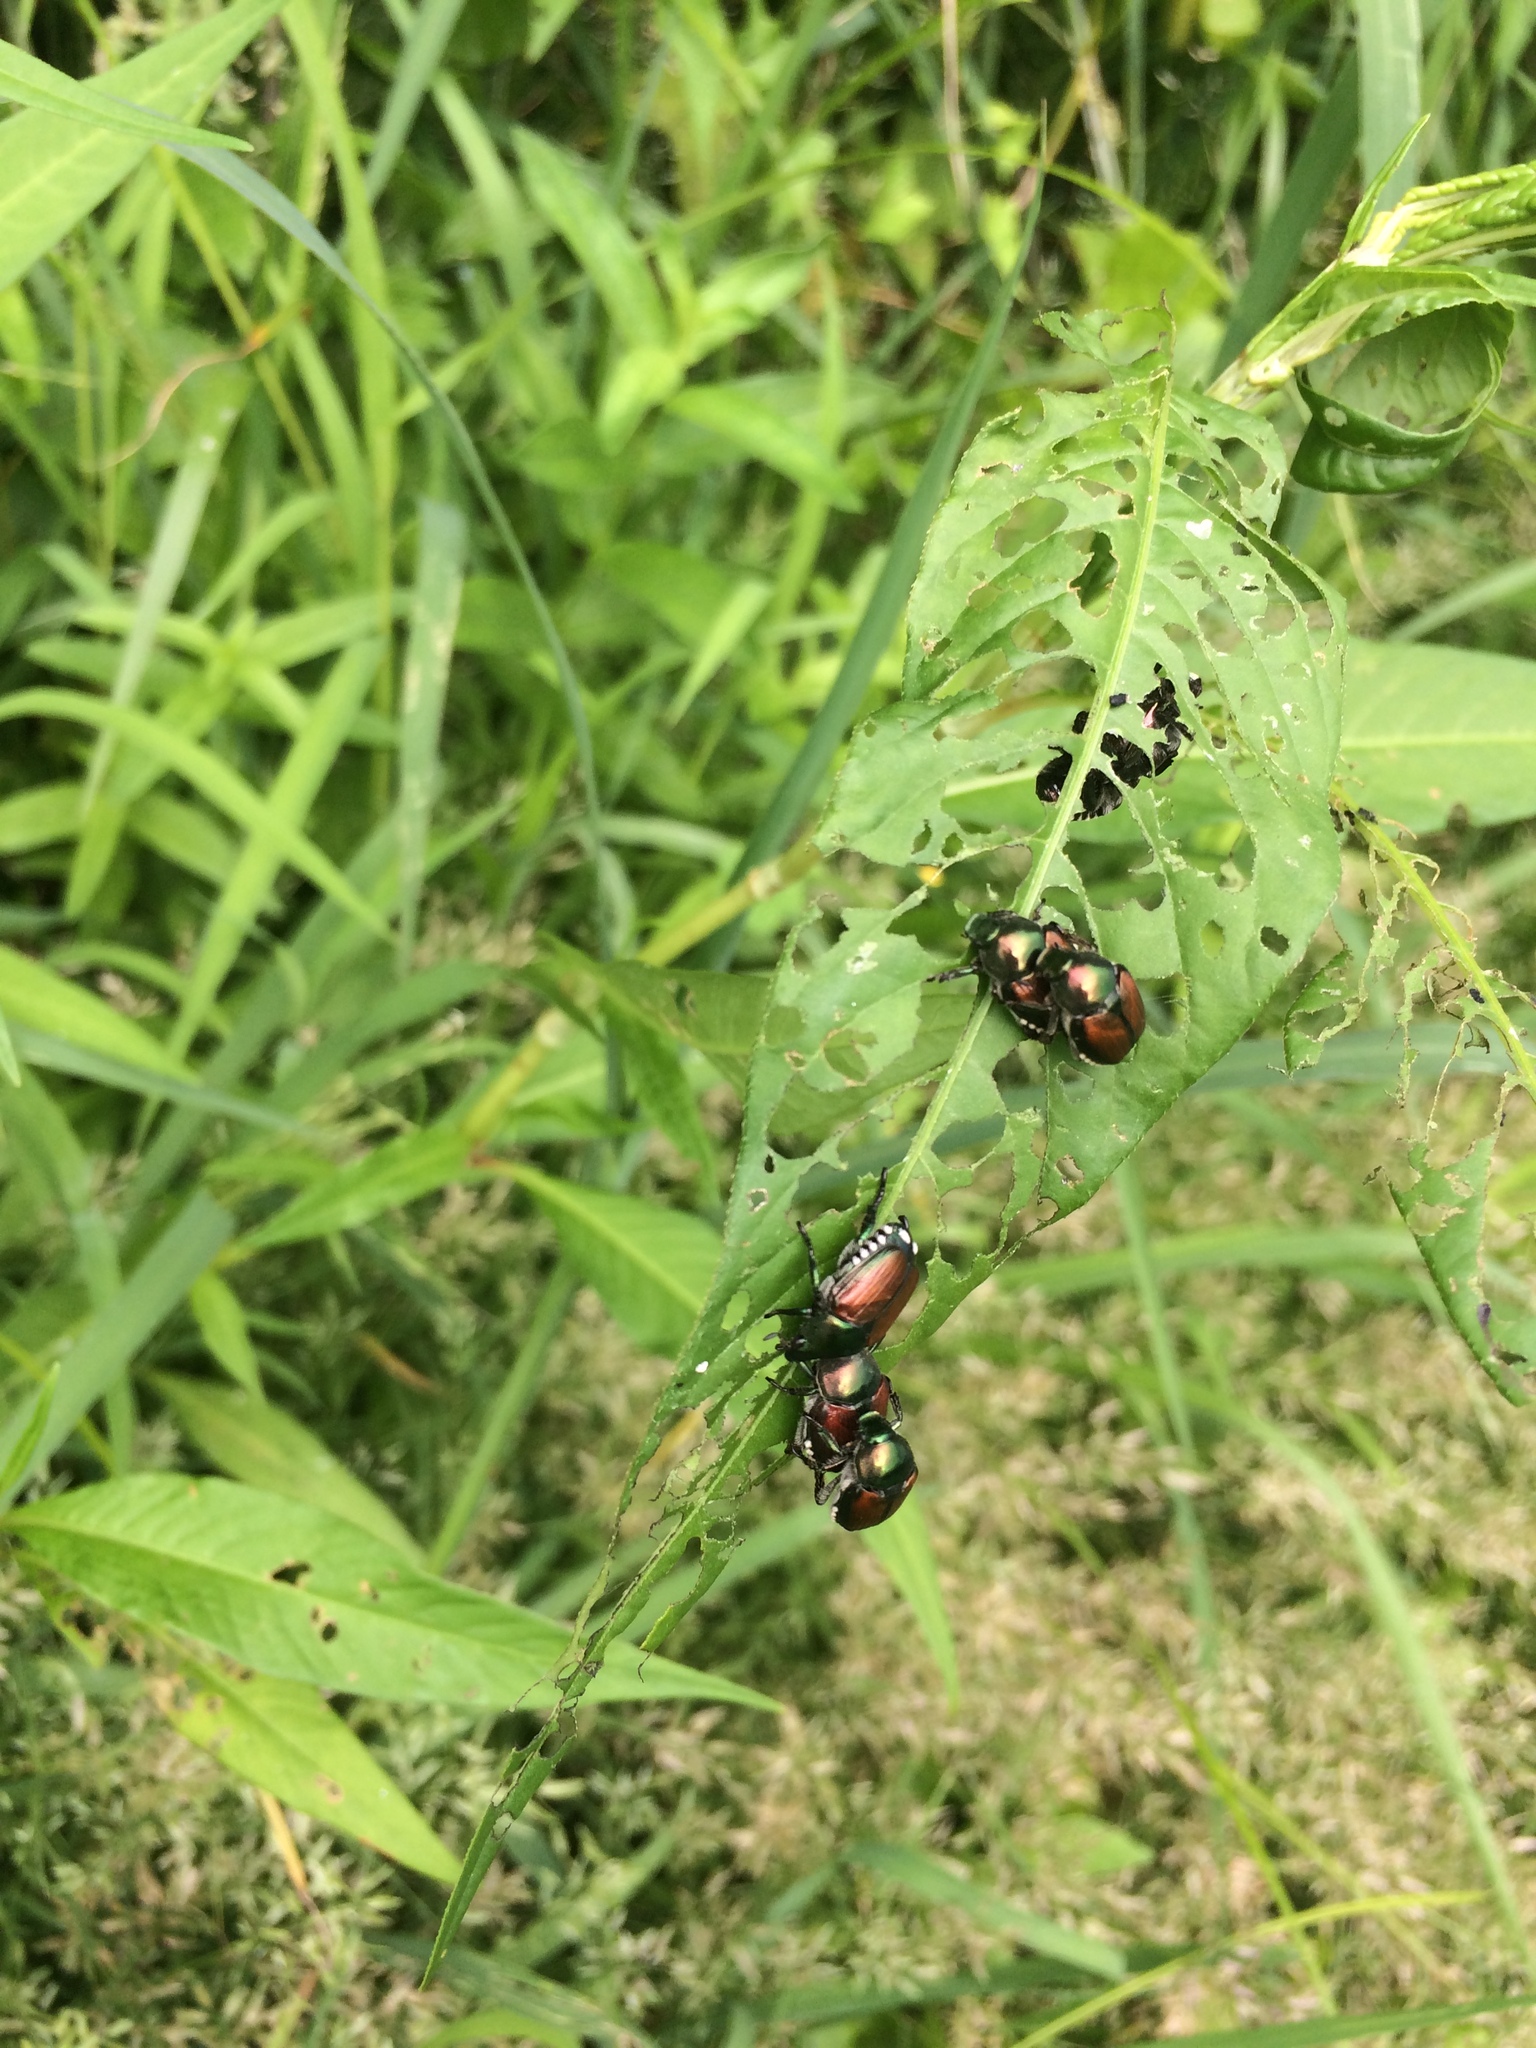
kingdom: Animalia
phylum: Arthropoda
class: Insecta
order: Coleoptera
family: Scarabaeidae
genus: Popillia
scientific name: Popillia japonica
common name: Japanese beetle
